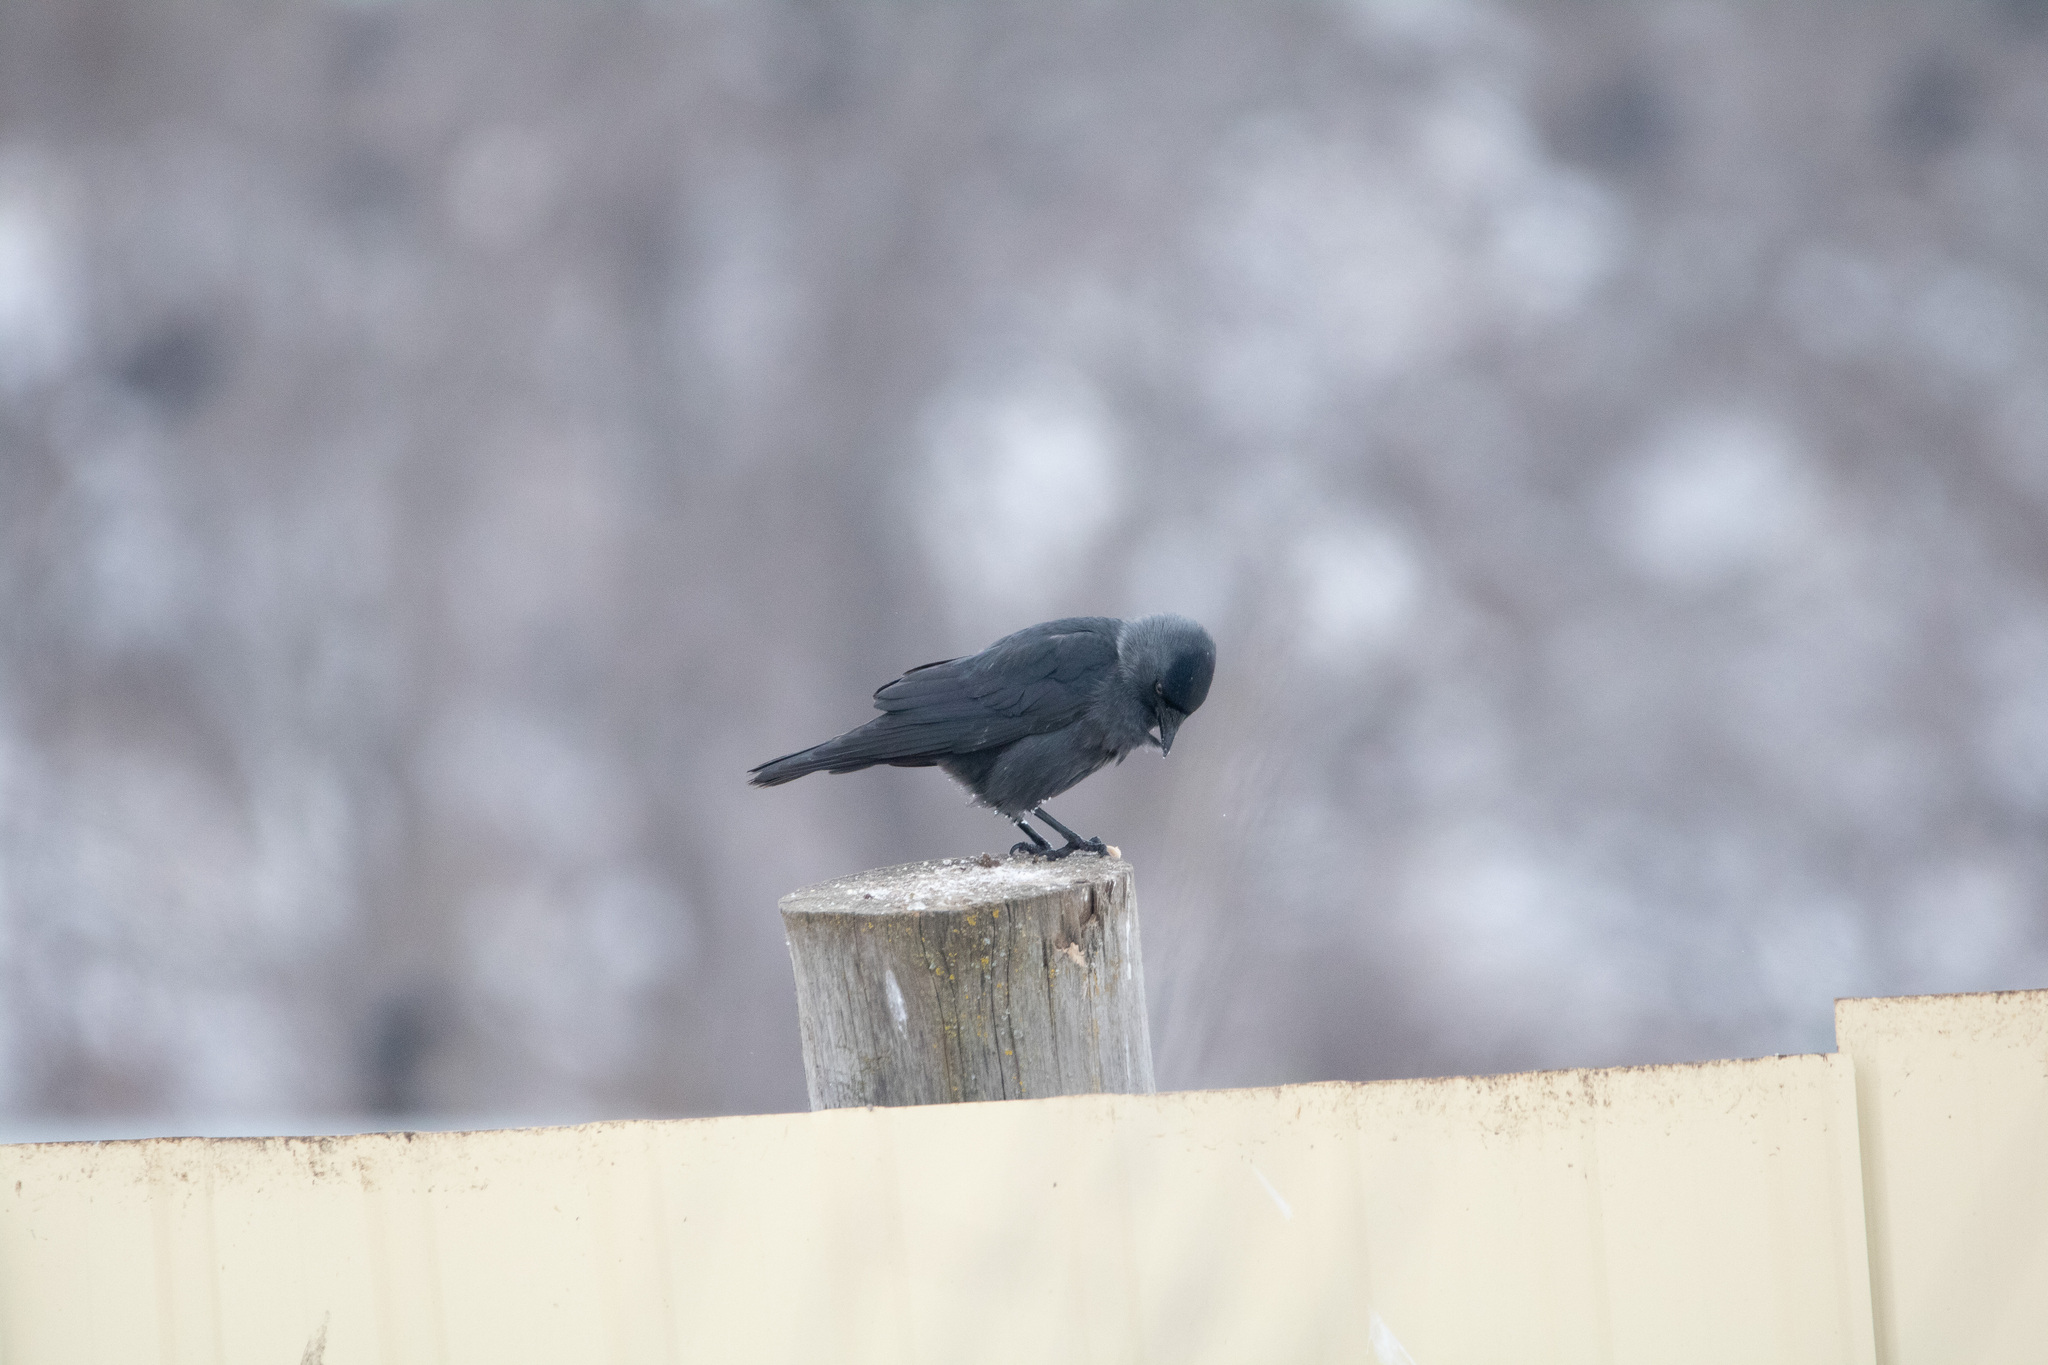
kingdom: Animalia
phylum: Chordata
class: Aves
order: Passeriformes
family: Corvidae
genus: Coloeus
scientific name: Coloeus monedula
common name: Western jackdaw
